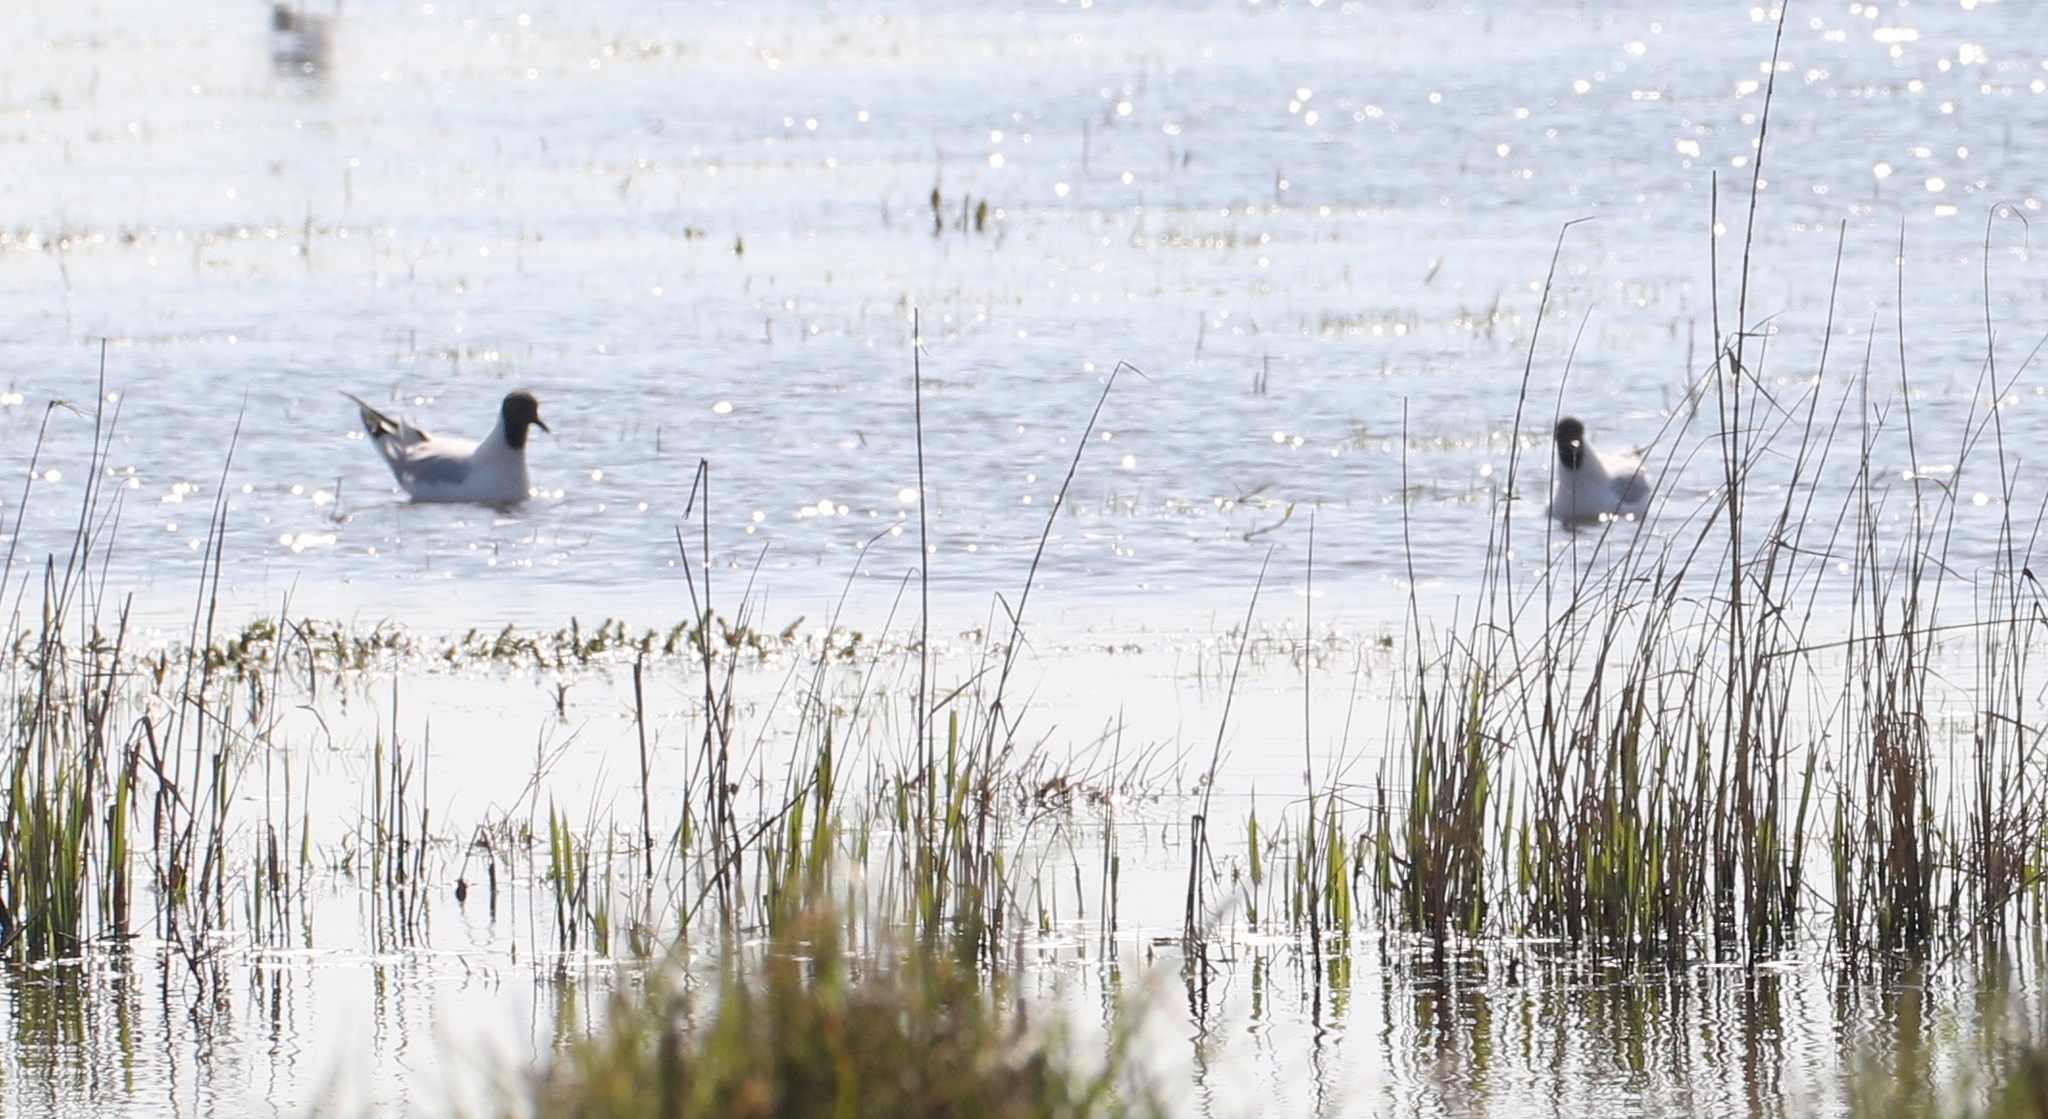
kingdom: Animalia
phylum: Chordata
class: Aves
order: Charadriiformes
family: Laridae
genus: Chroicocephalus
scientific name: Chroicocephalus ridibundus
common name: Black-headed gull
